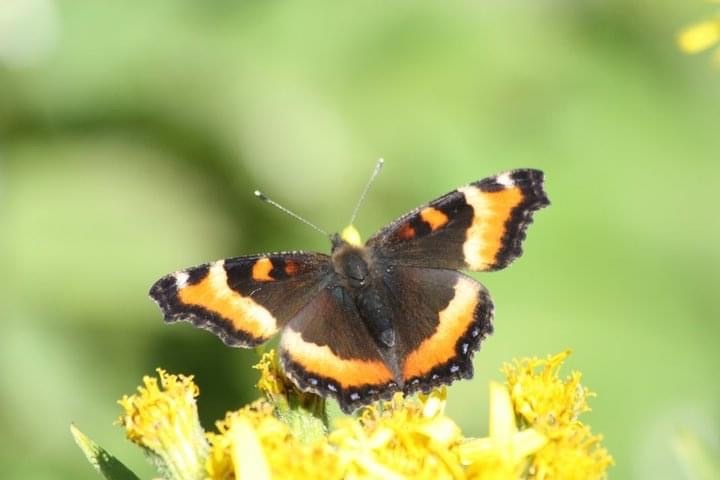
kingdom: Animalia
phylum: Arthropoda
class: Insecta
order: Lepidoptera
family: Nymphalidae
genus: Aglais
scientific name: Aglais milberti
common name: Milbert's tortoiseshell
